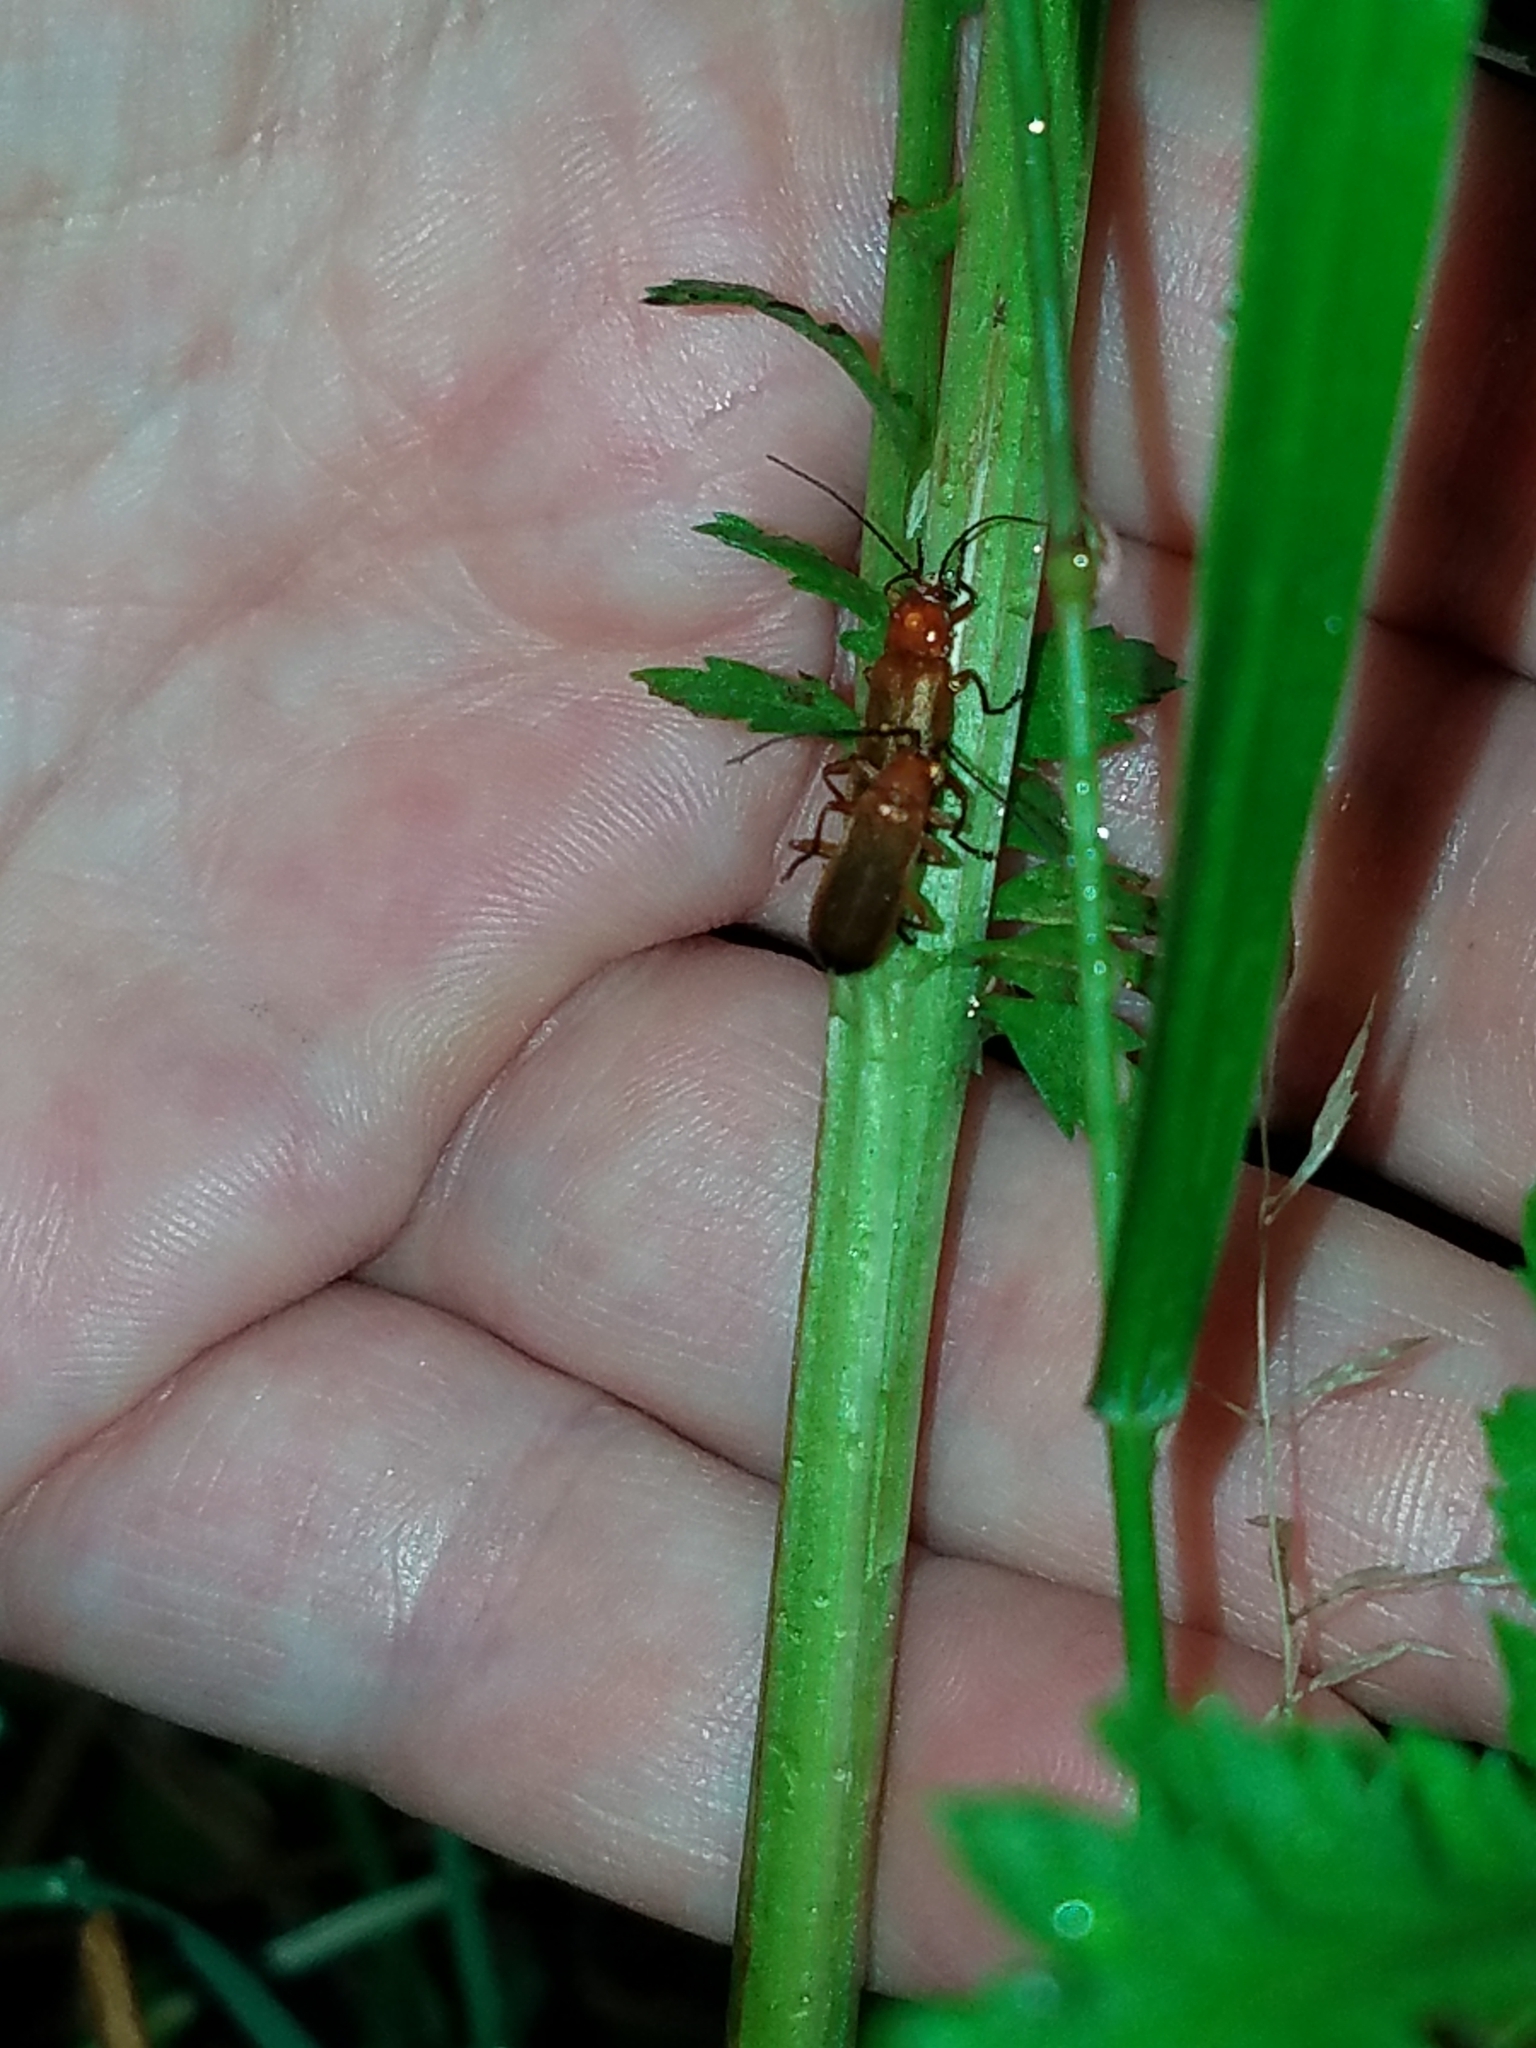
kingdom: Animalia
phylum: Arthropoda
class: Insecta
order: Coleoptera
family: Cantharidae
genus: Rhagonycha
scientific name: Rhagonycha fulva
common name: Common red soldier beetle
